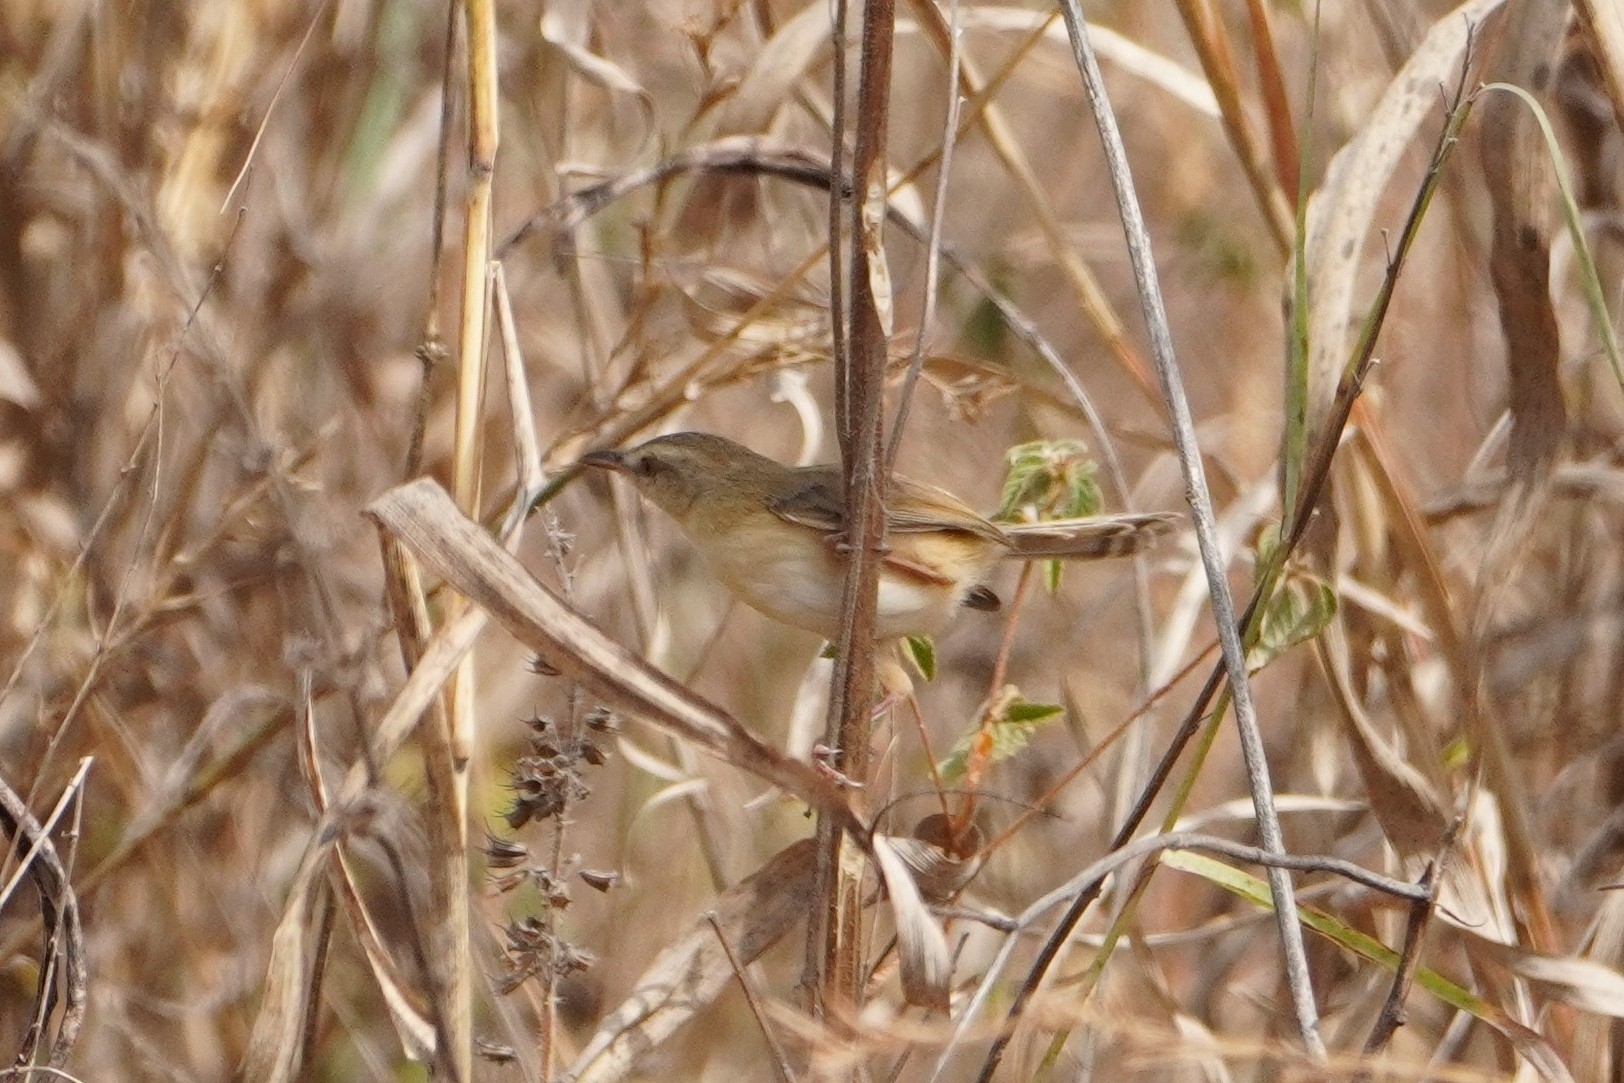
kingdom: Animalia
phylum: Chordata
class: Aves
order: Passeriformes
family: Cisticolidae
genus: Prinia
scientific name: Prinia subflava
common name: Tawny-flanked prinia
